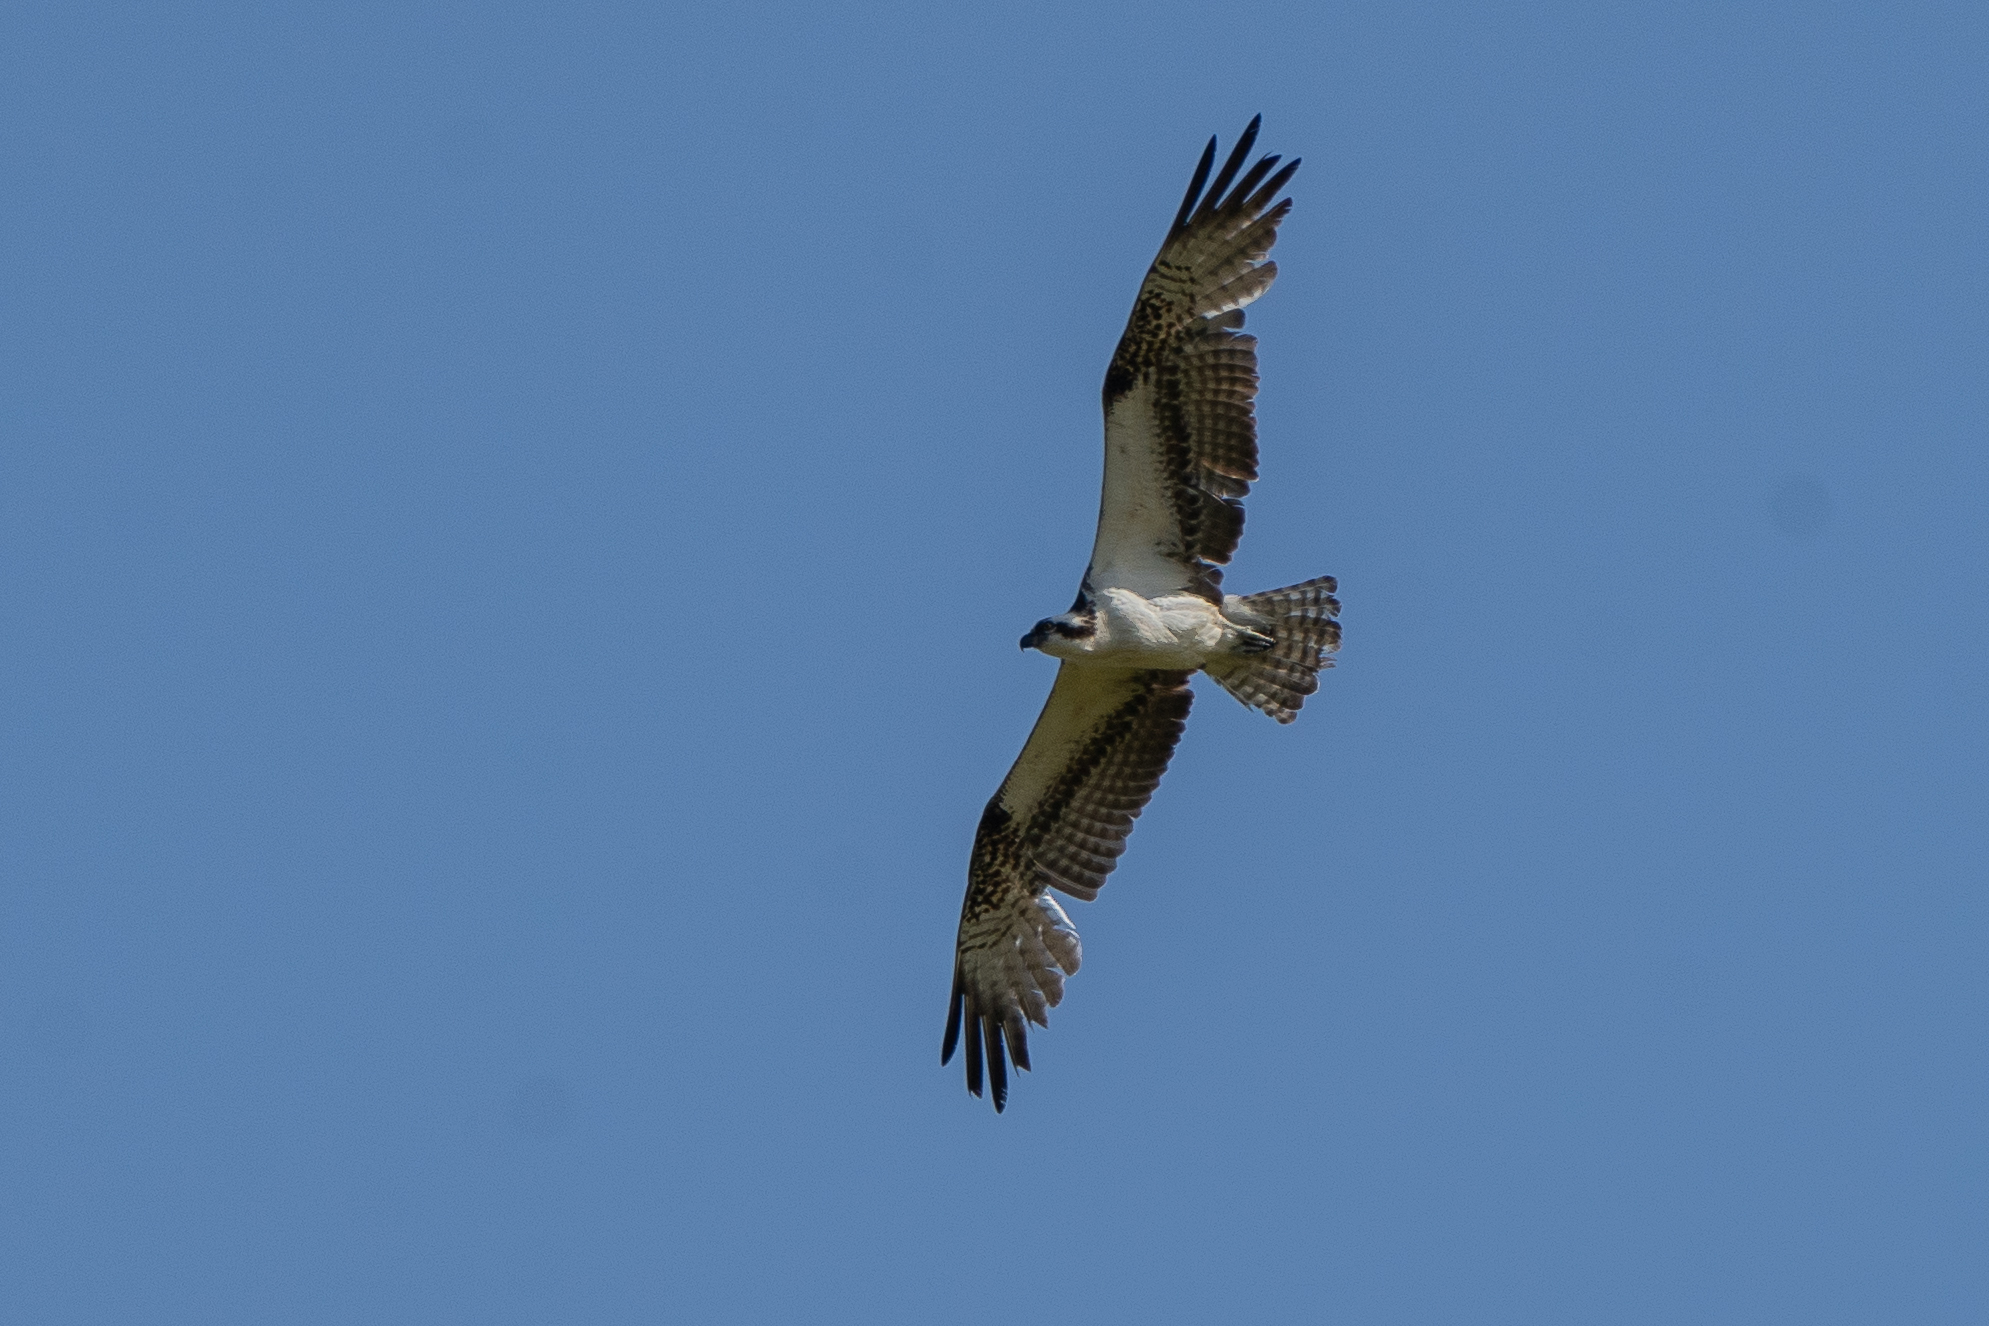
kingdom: Animalia
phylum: Chordata
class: Aves
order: Accipitriformes
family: Pandionidae
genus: Pandion
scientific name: Pandion haliaetus
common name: Osprey
